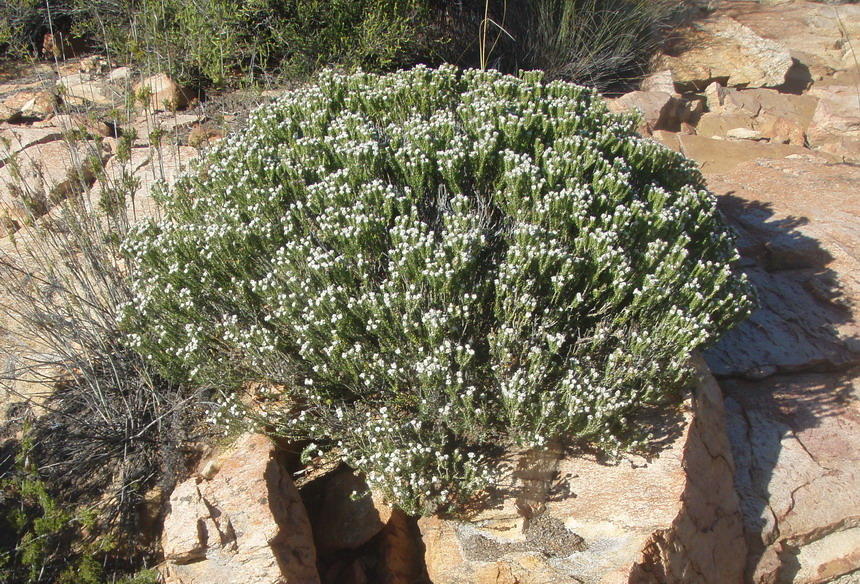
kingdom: Plantae
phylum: Tracheophyta
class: Magnoliopsida
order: Rosales
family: Rhamnaceae
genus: Phylica
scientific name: Phylica karroica
